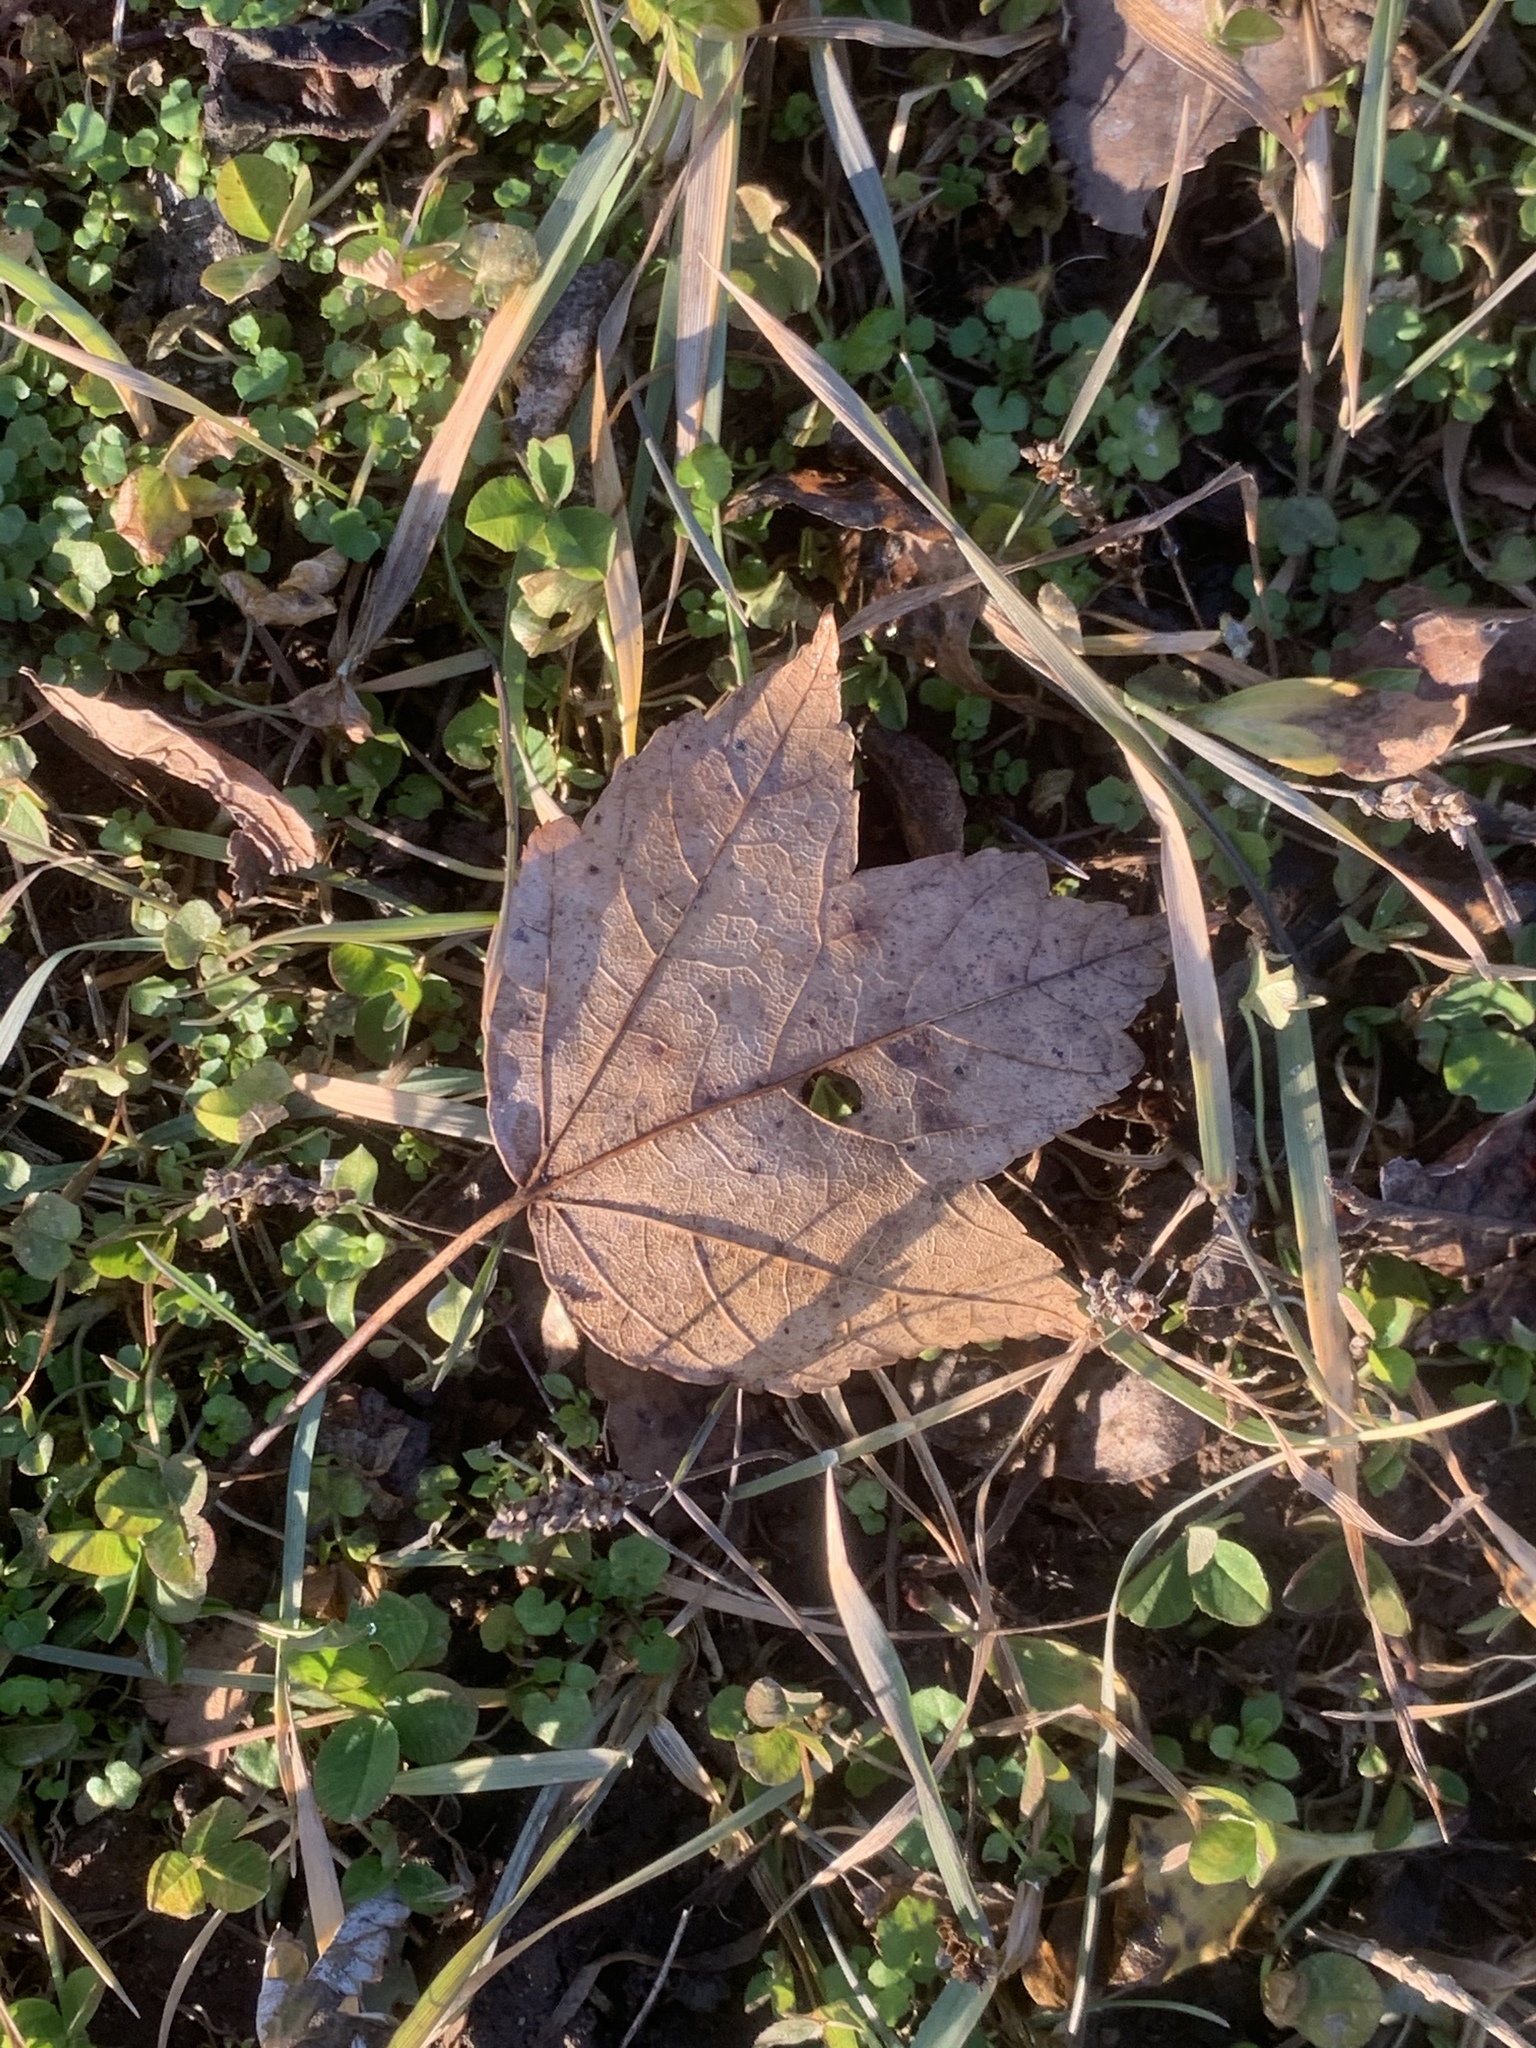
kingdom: Plantae
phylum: Tracheophyta
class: Magnoliopsida
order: Sapindales
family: Sapindaceae
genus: Acer
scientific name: Acer rubrum
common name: Red maple
